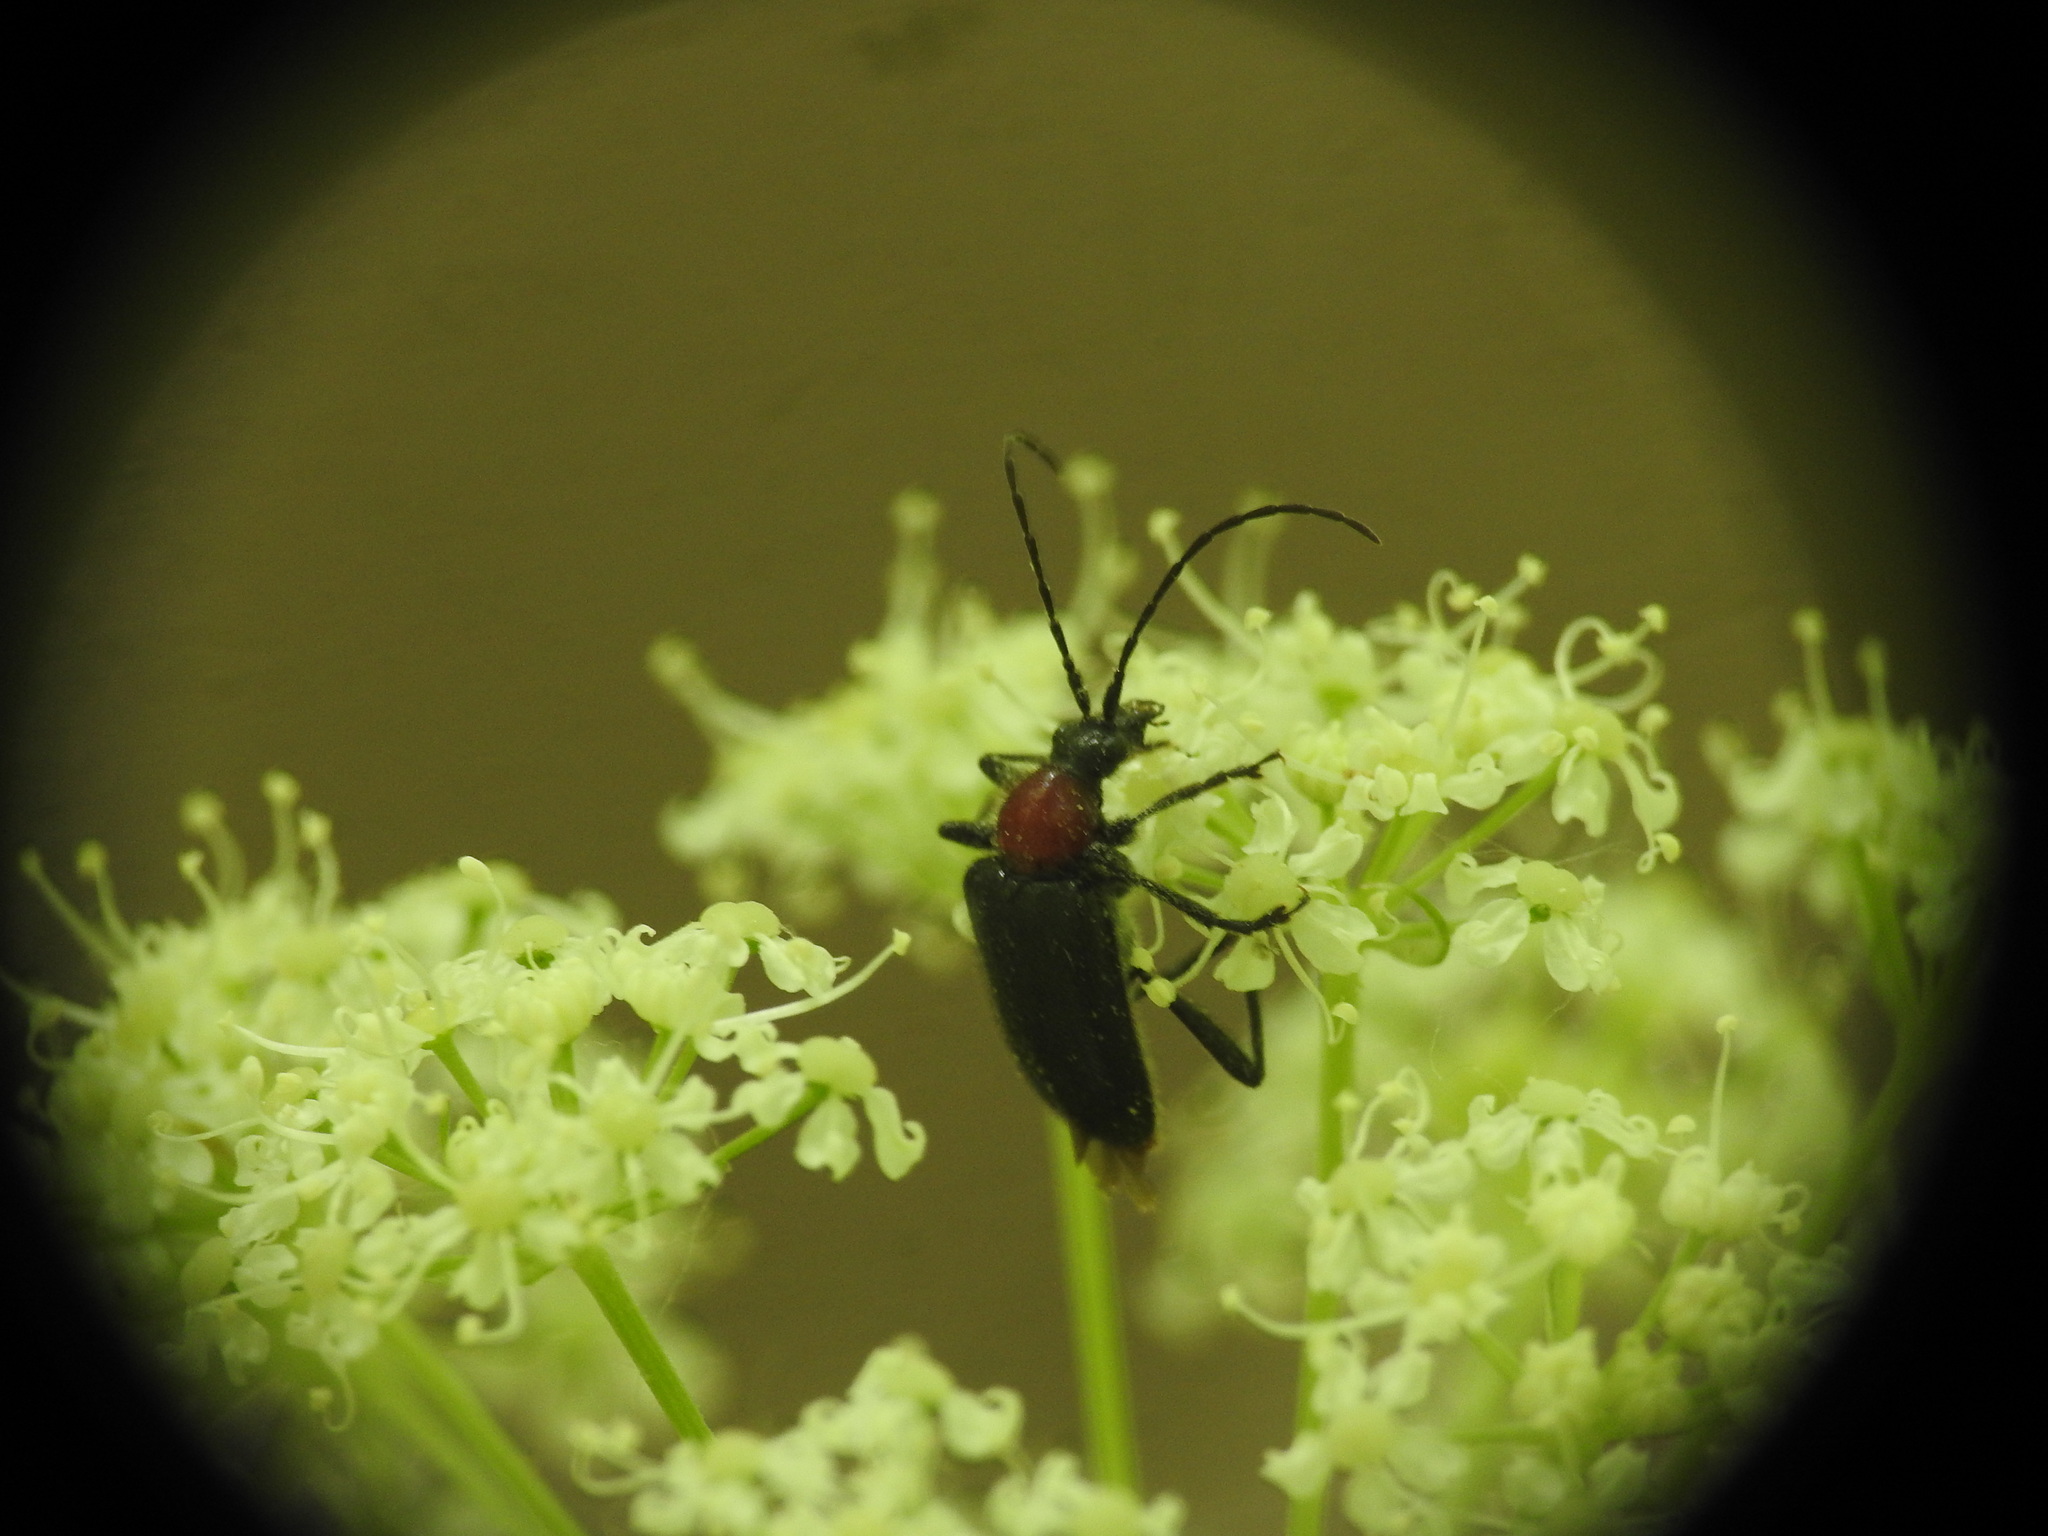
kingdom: Animalia
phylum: Arthropoda
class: Insecta
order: Coleoptera
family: Cerambycidae
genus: Dinoptera
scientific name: Dinoptera collaris
